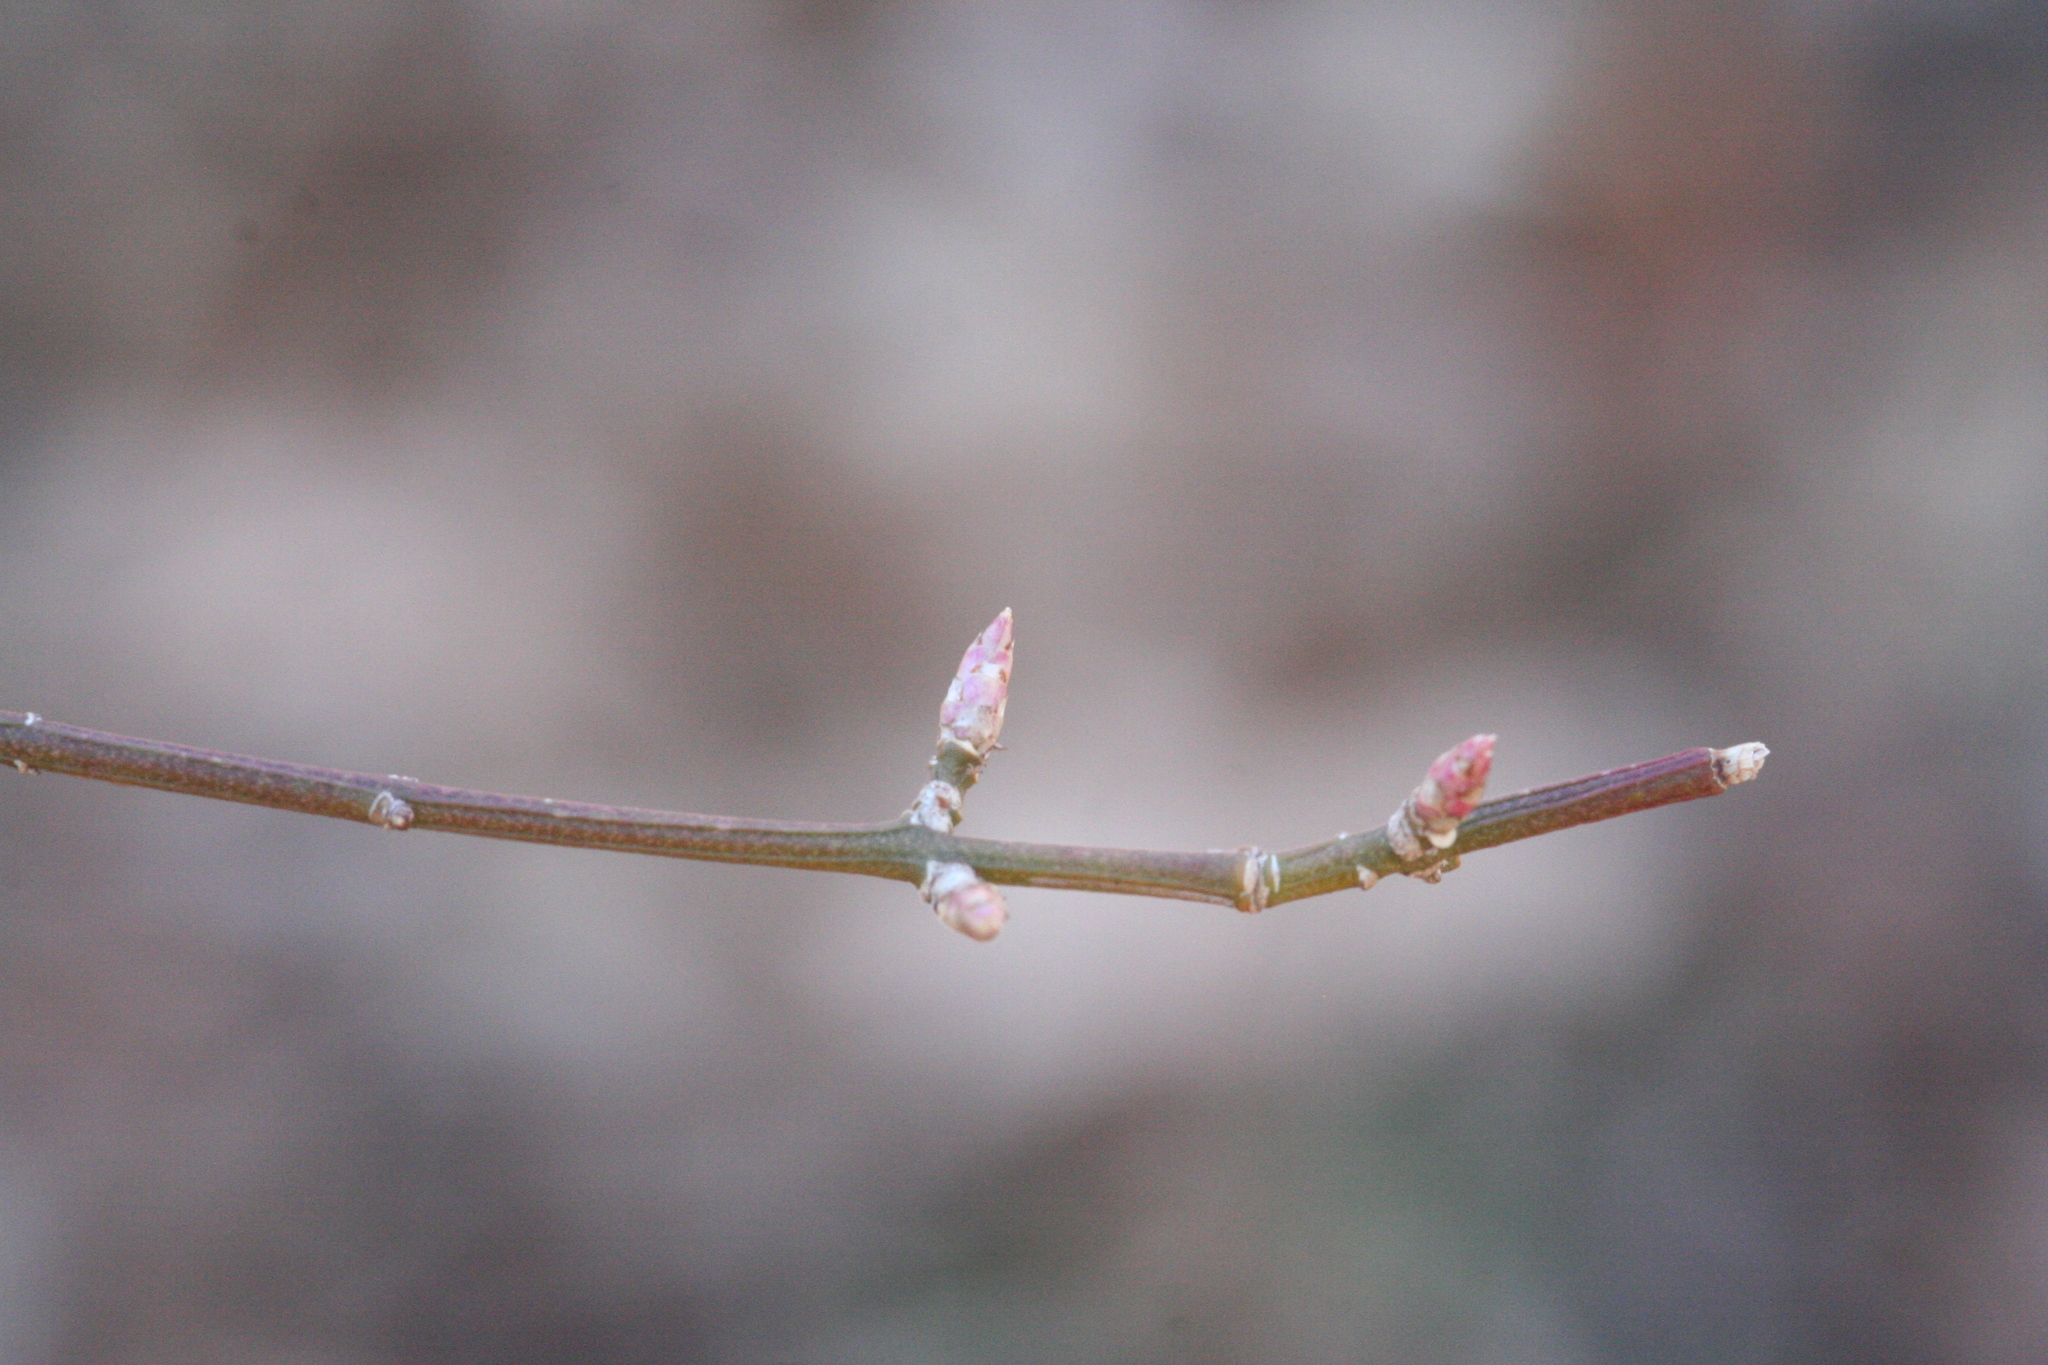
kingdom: Plantae
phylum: Tracheophyta
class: Magnoliopsida
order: Celastrales
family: Celastraceae
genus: Euonymus
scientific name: Euonymus alatus
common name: Winged euonymus
